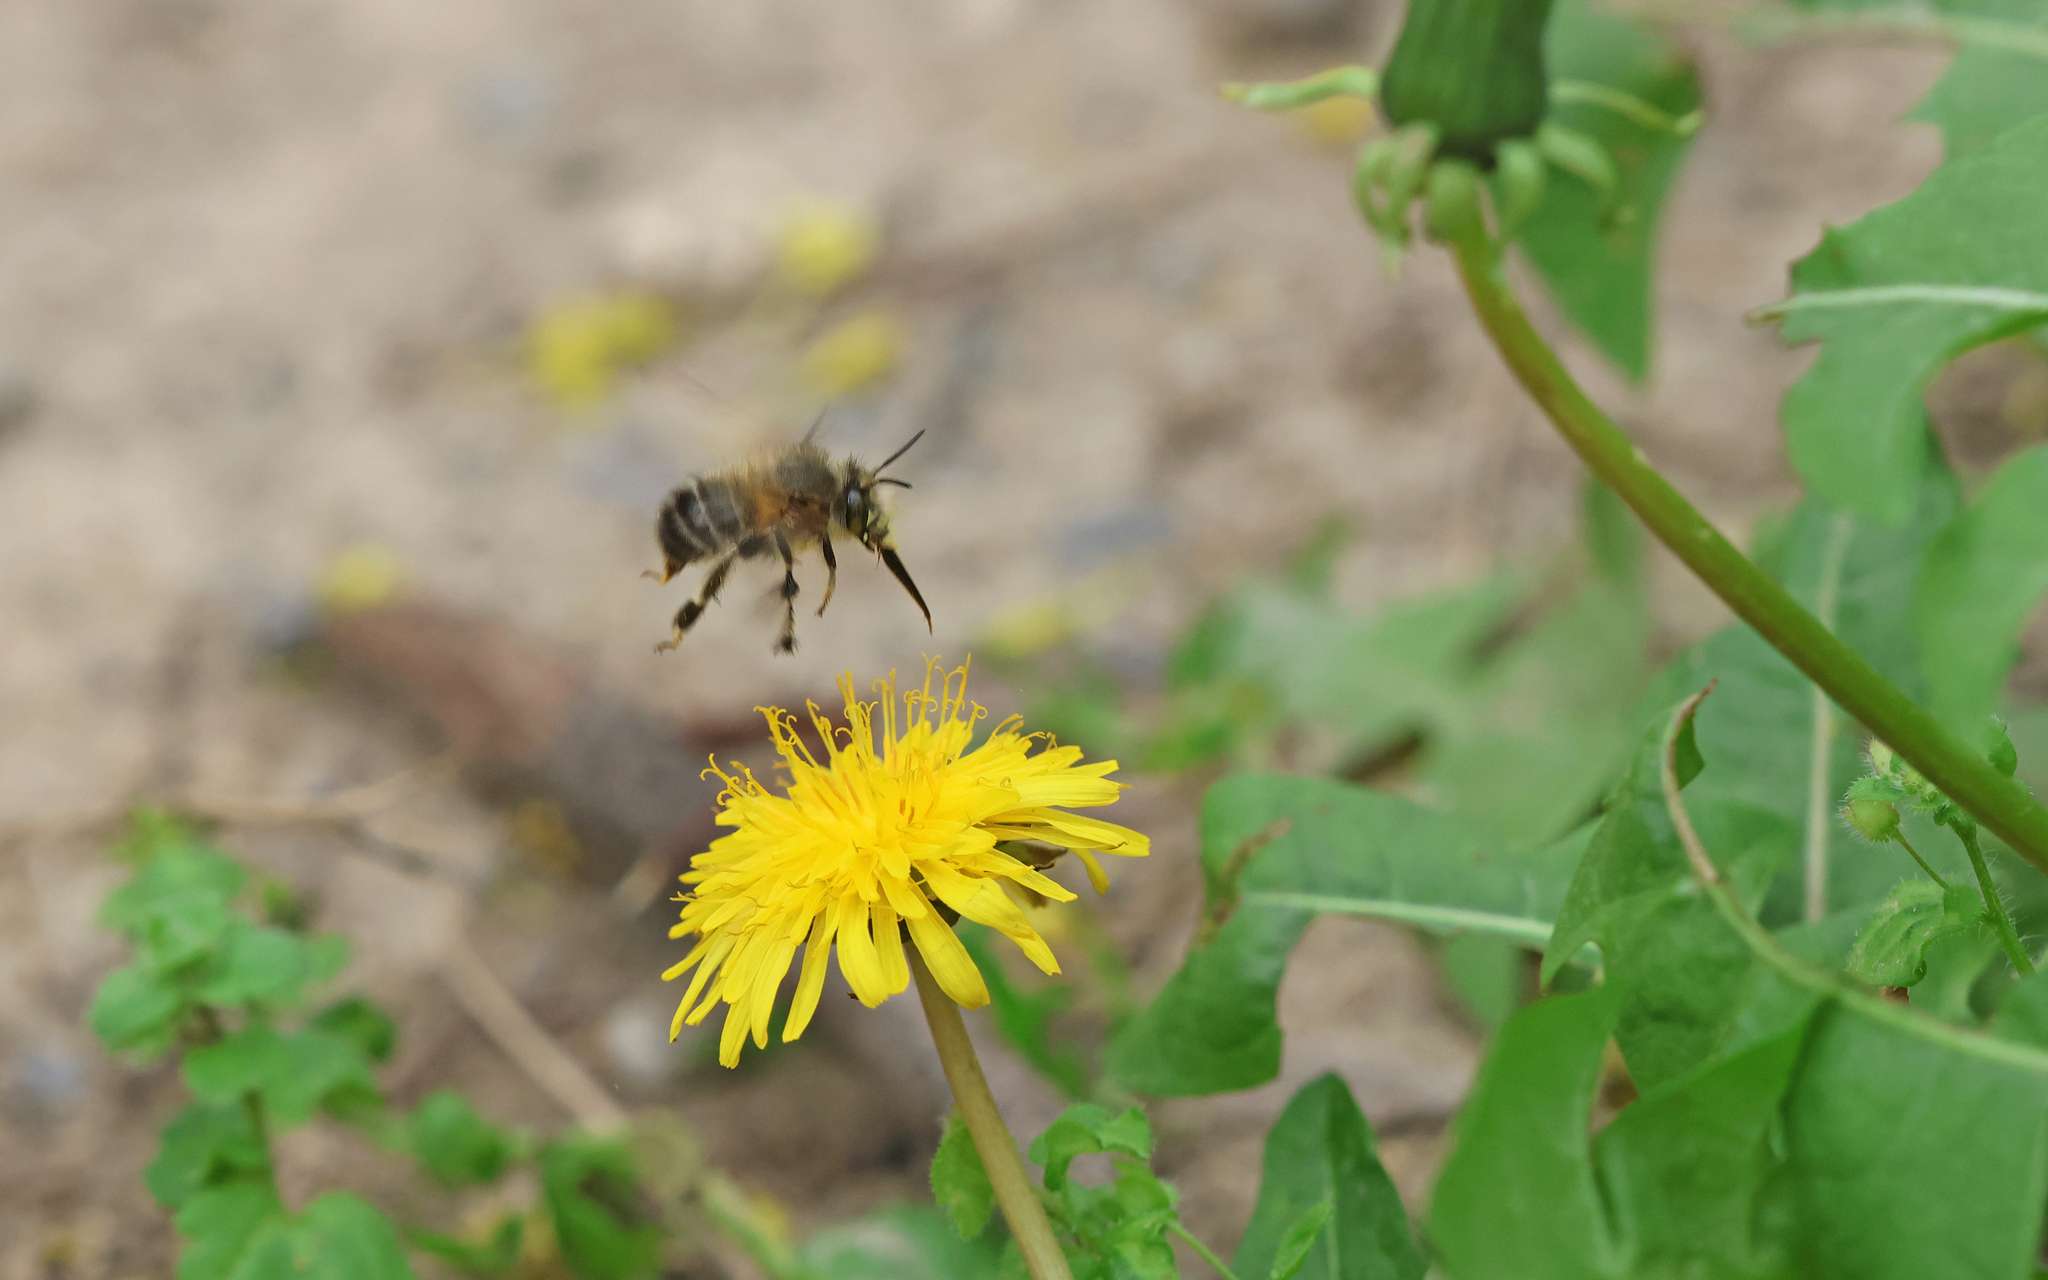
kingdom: Animalia
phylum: Arthropoda
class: Insecta
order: Hymenoptera
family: Apidae
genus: Anthophora
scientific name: Anthophora plumipes
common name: Hairy-footed flower bee
